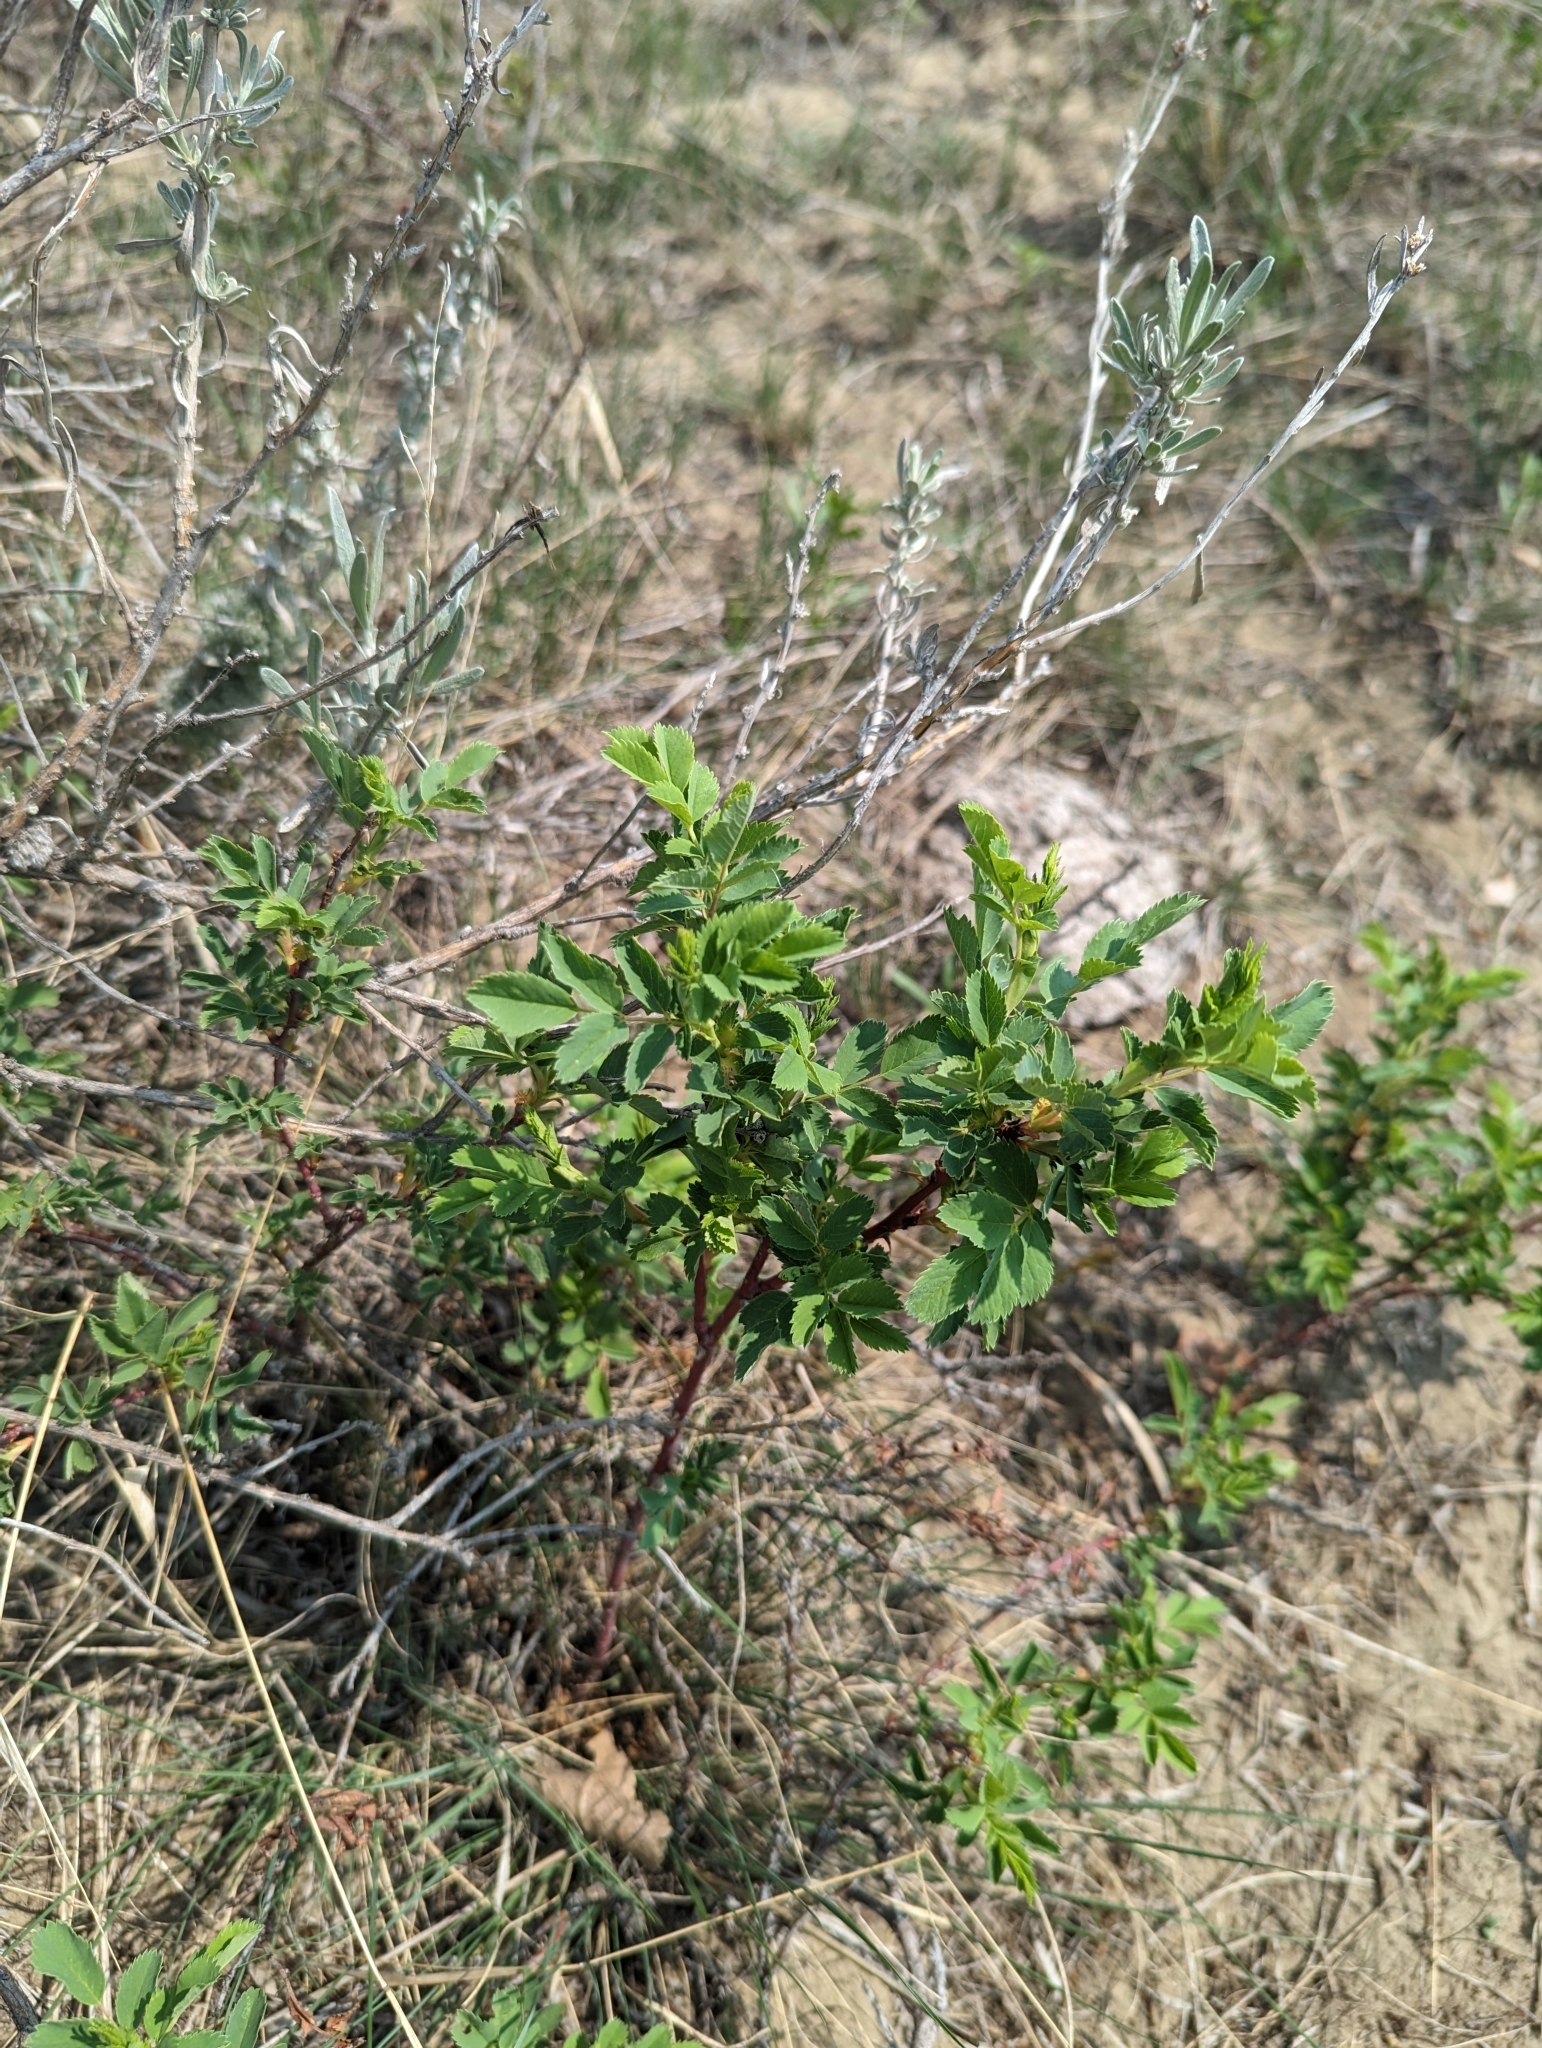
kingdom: Plantae
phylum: Tracheophyta
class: Magnoliopsida
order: Rosales
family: Rosaceae
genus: Rosa
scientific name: Rosa woodsii
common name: Woods's rose
